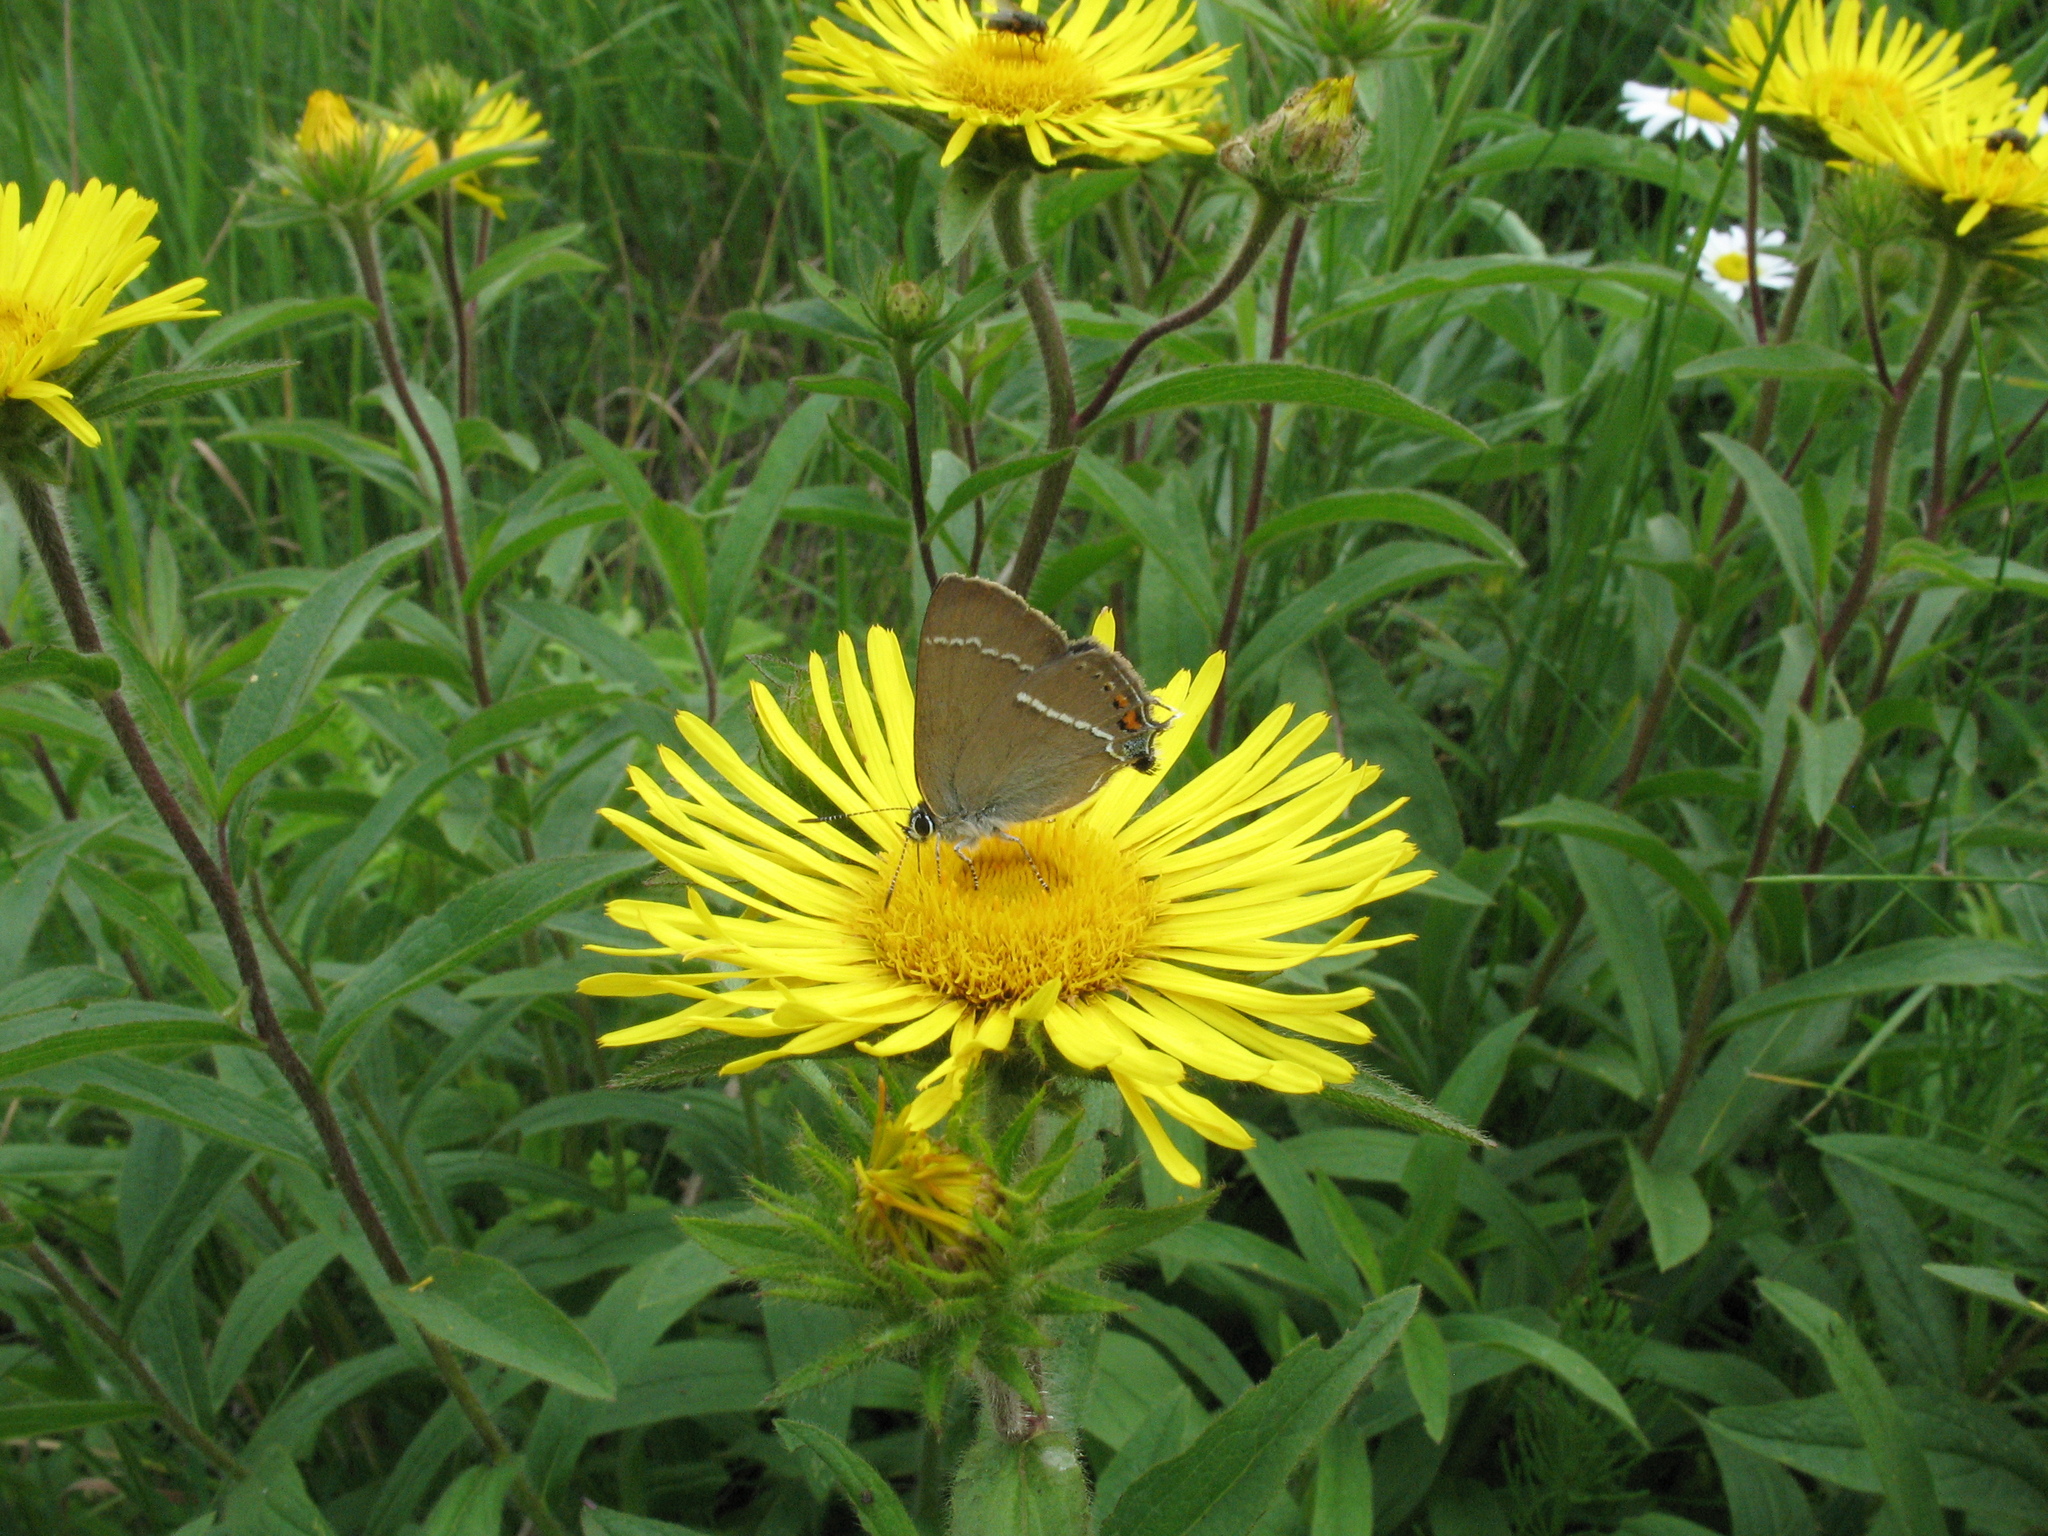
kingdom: Animalia
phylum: Arthropoda
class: Insecta
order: Lepidoptera
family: Lycaenidae
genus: Tuttiola
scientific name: Tuttiola spini
